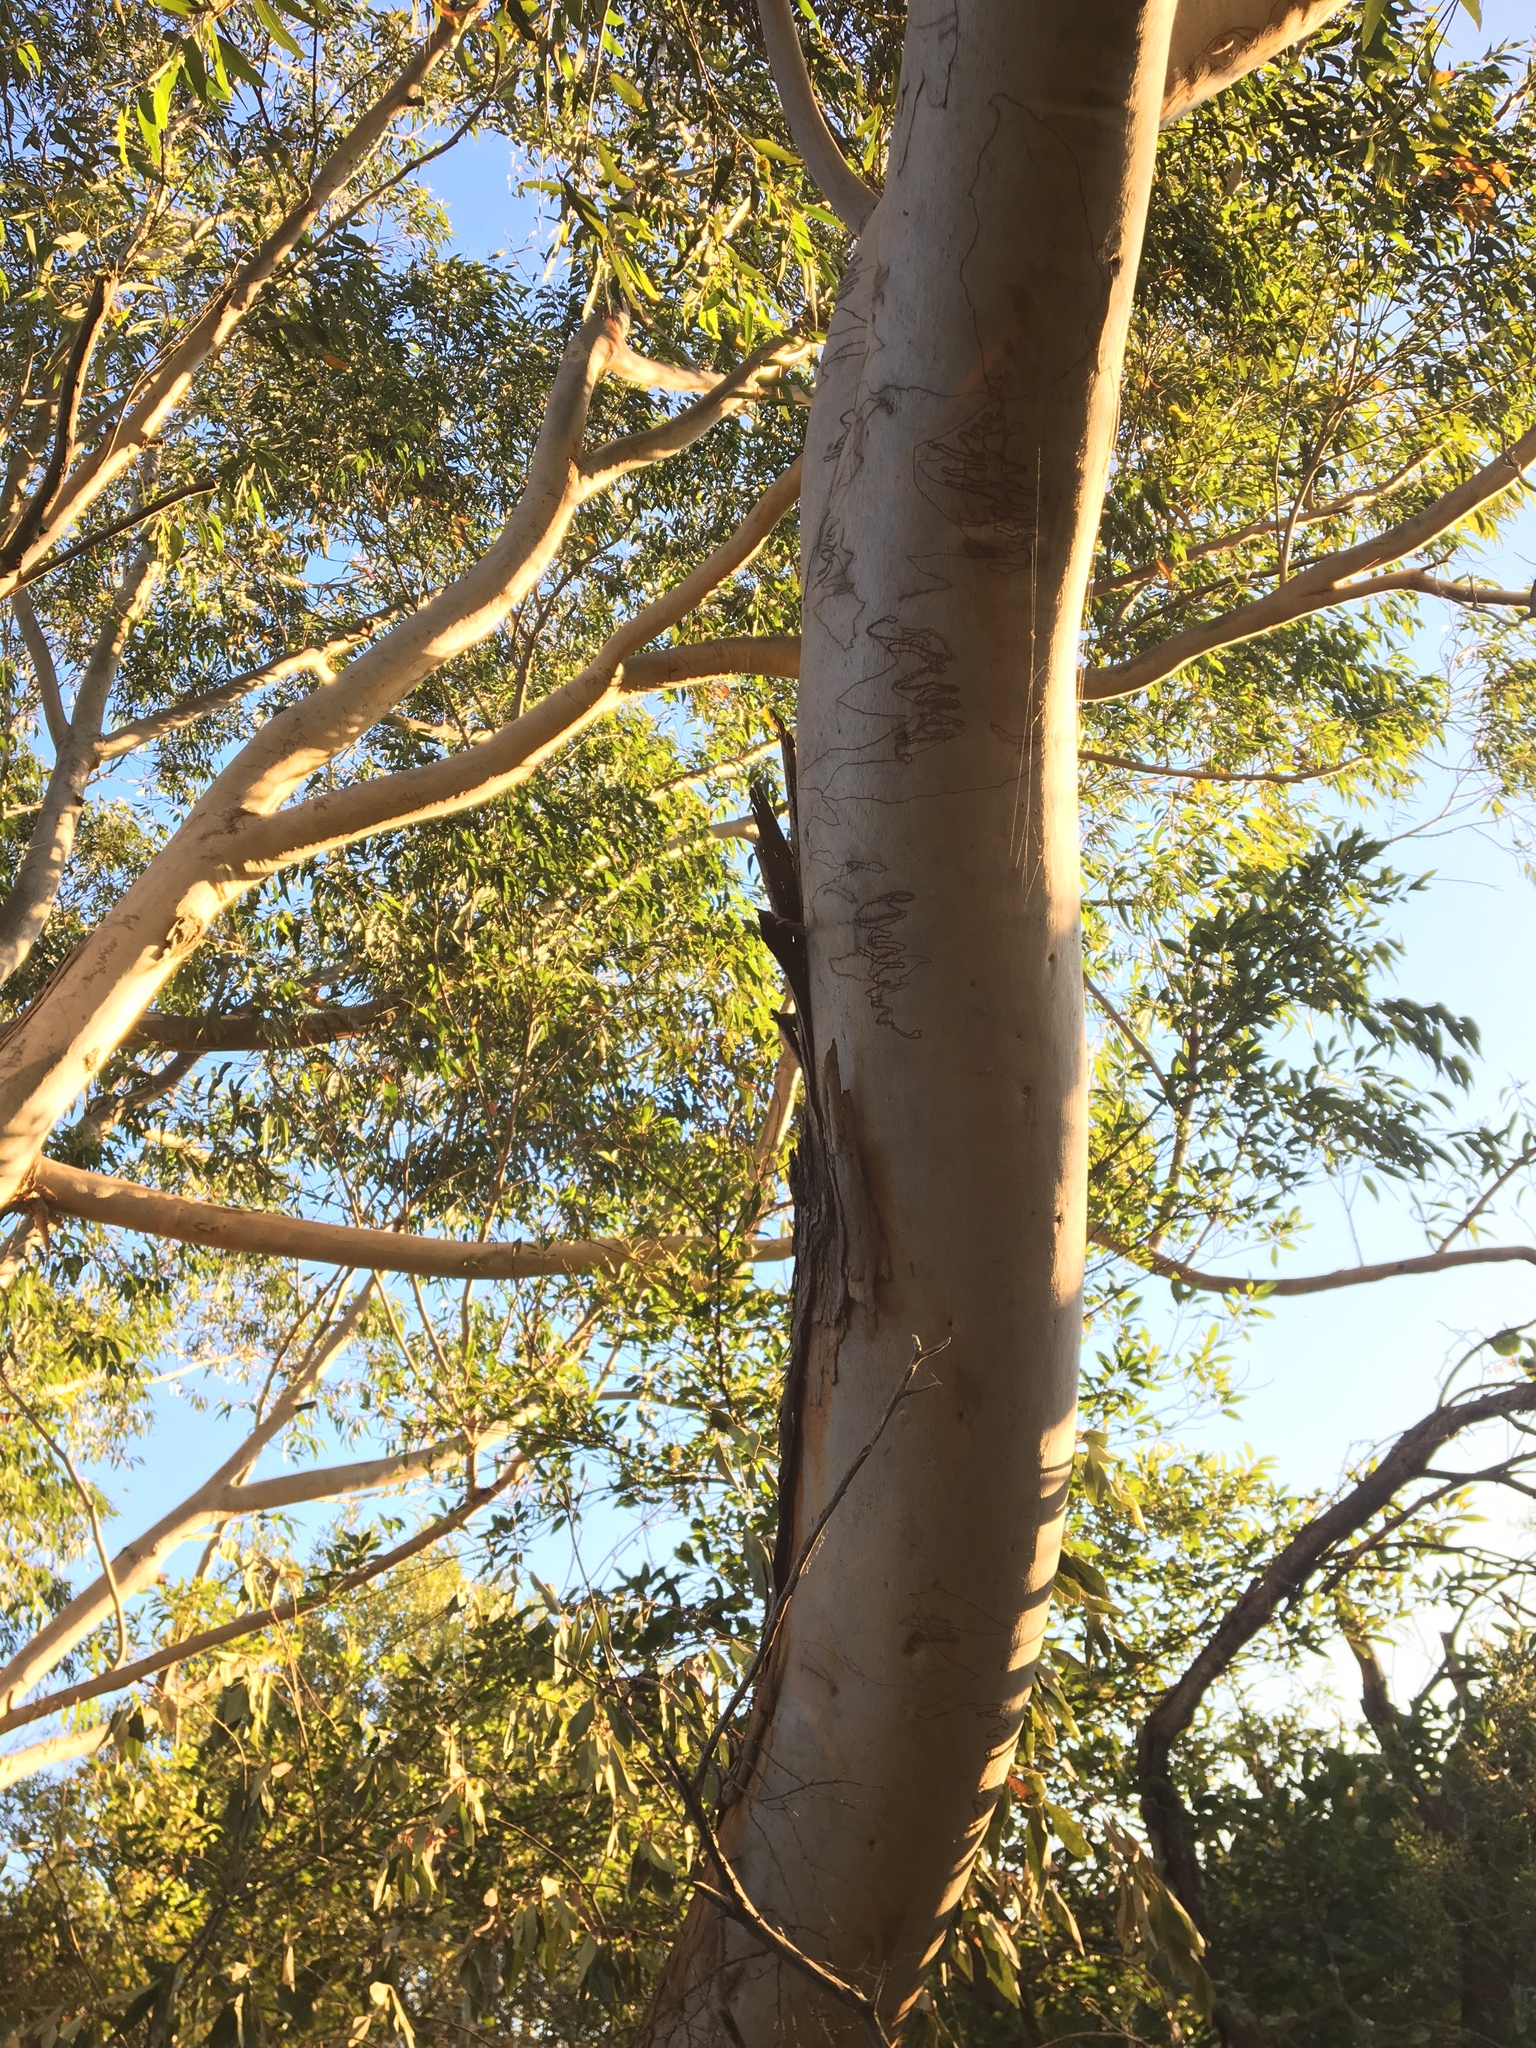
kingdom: Plantae
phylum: Tracheophyta
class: Magnoliopsida
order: Myrtales
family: Myrtaceae
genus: Eucalyptus
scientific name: Eucalyptus pilularis
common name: Blackbutt
